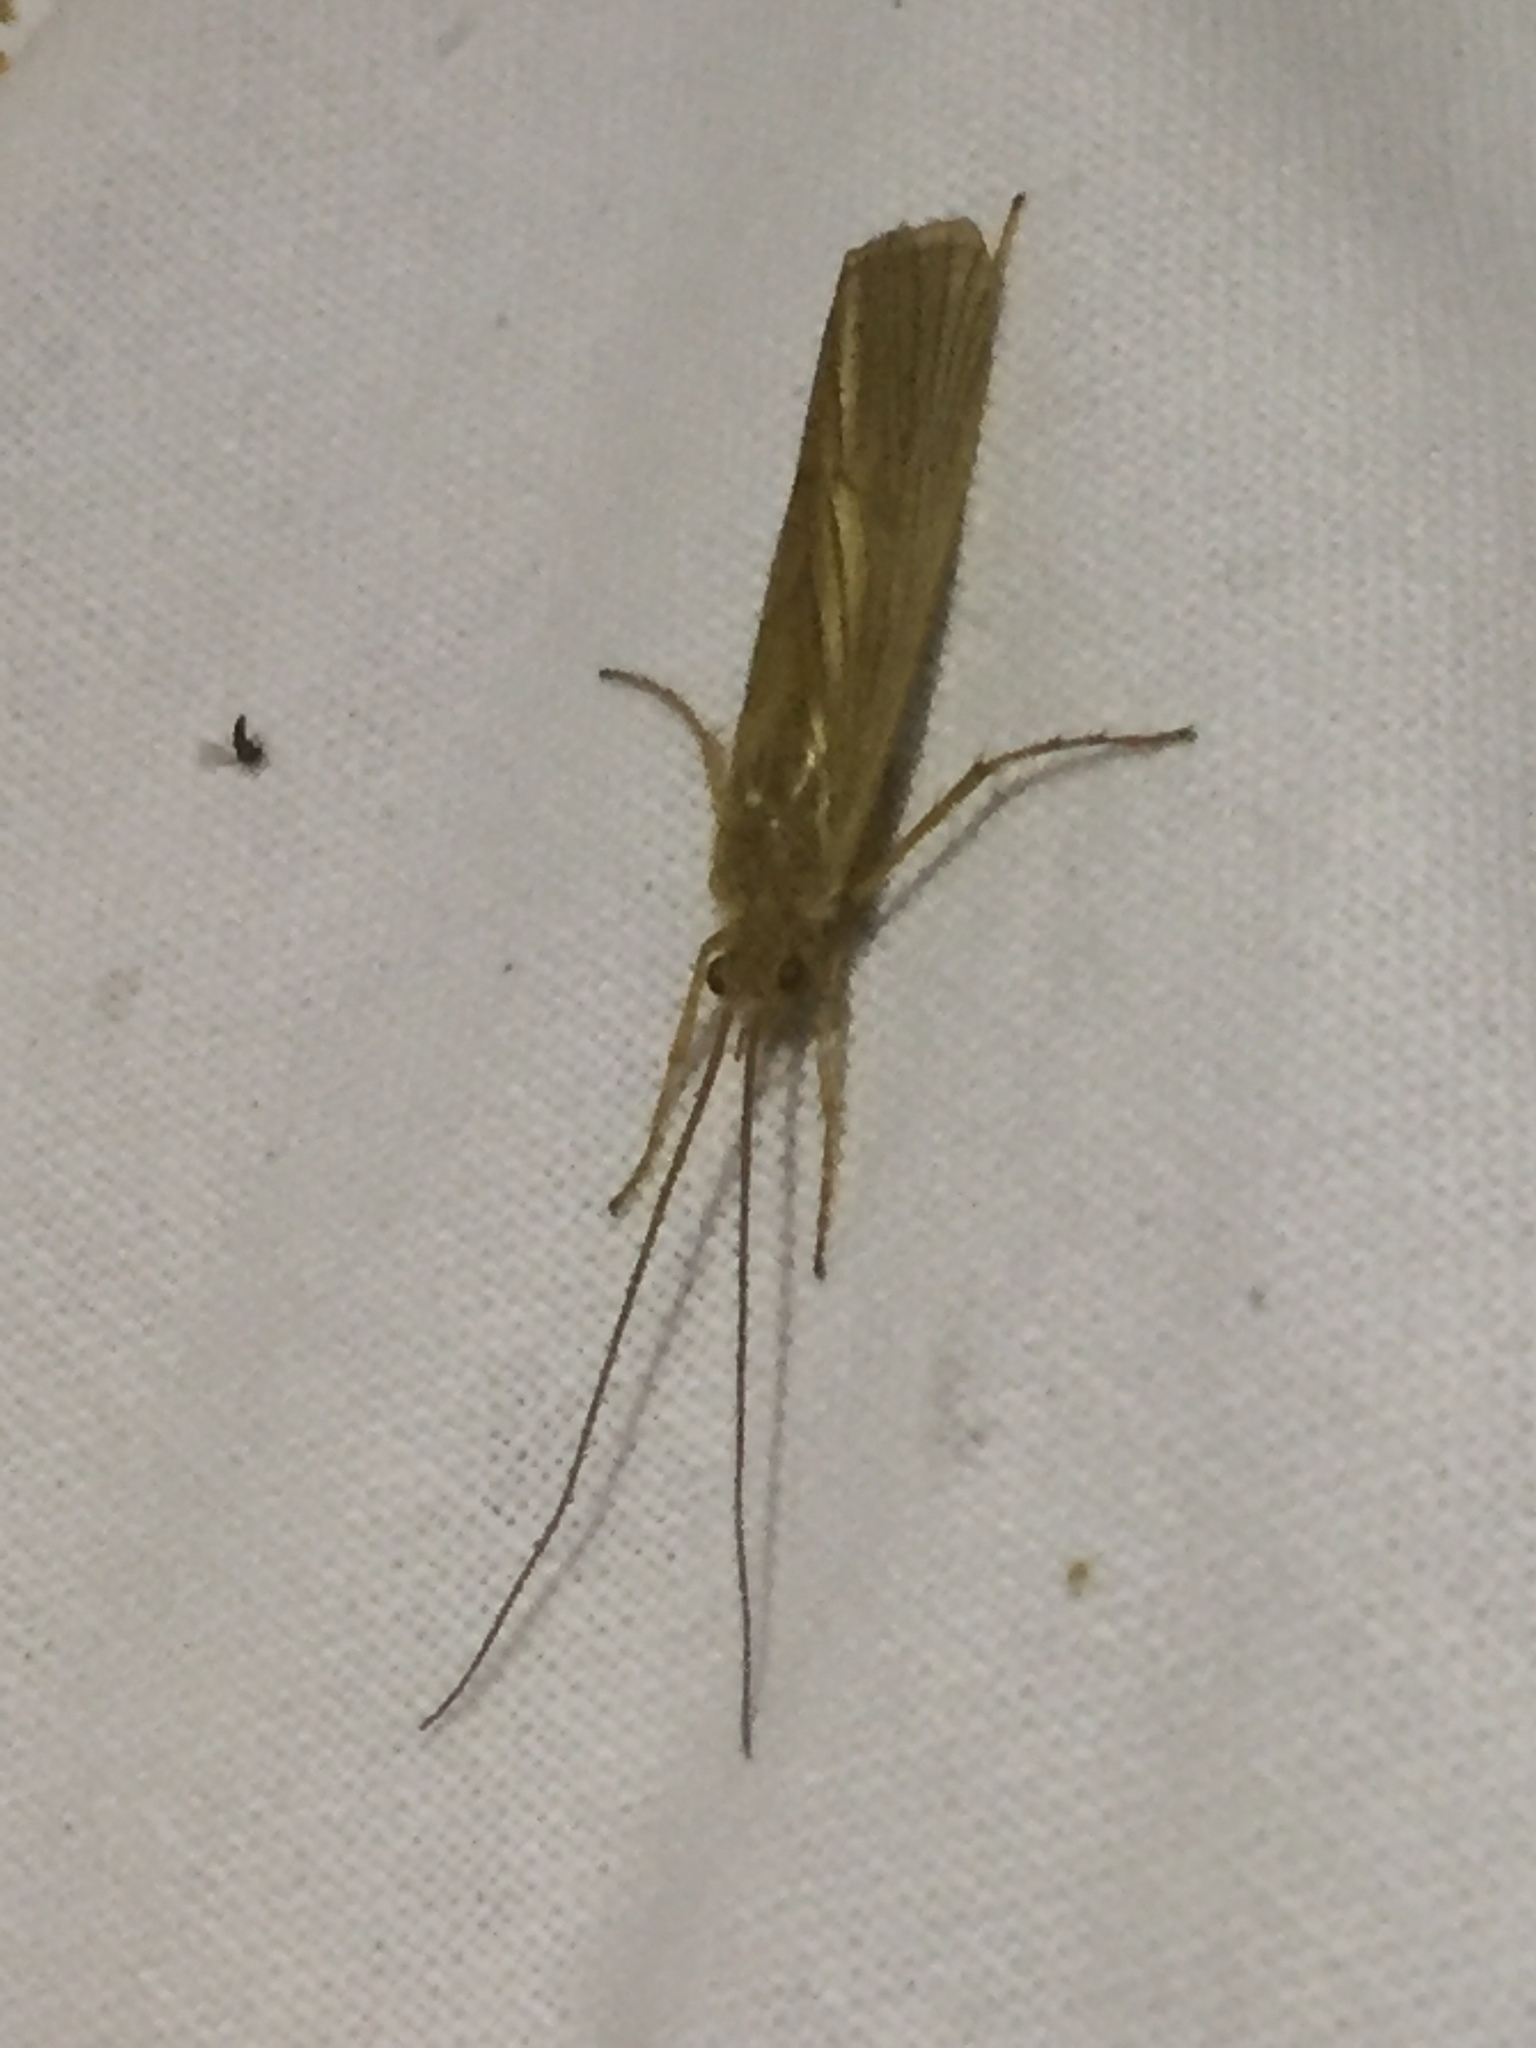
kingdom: Animalia
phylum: Arthropoda
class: Insecta
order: Trichoptera
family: Phryganeidae
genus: Agrypnia
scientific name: Agrypnia pagetana
